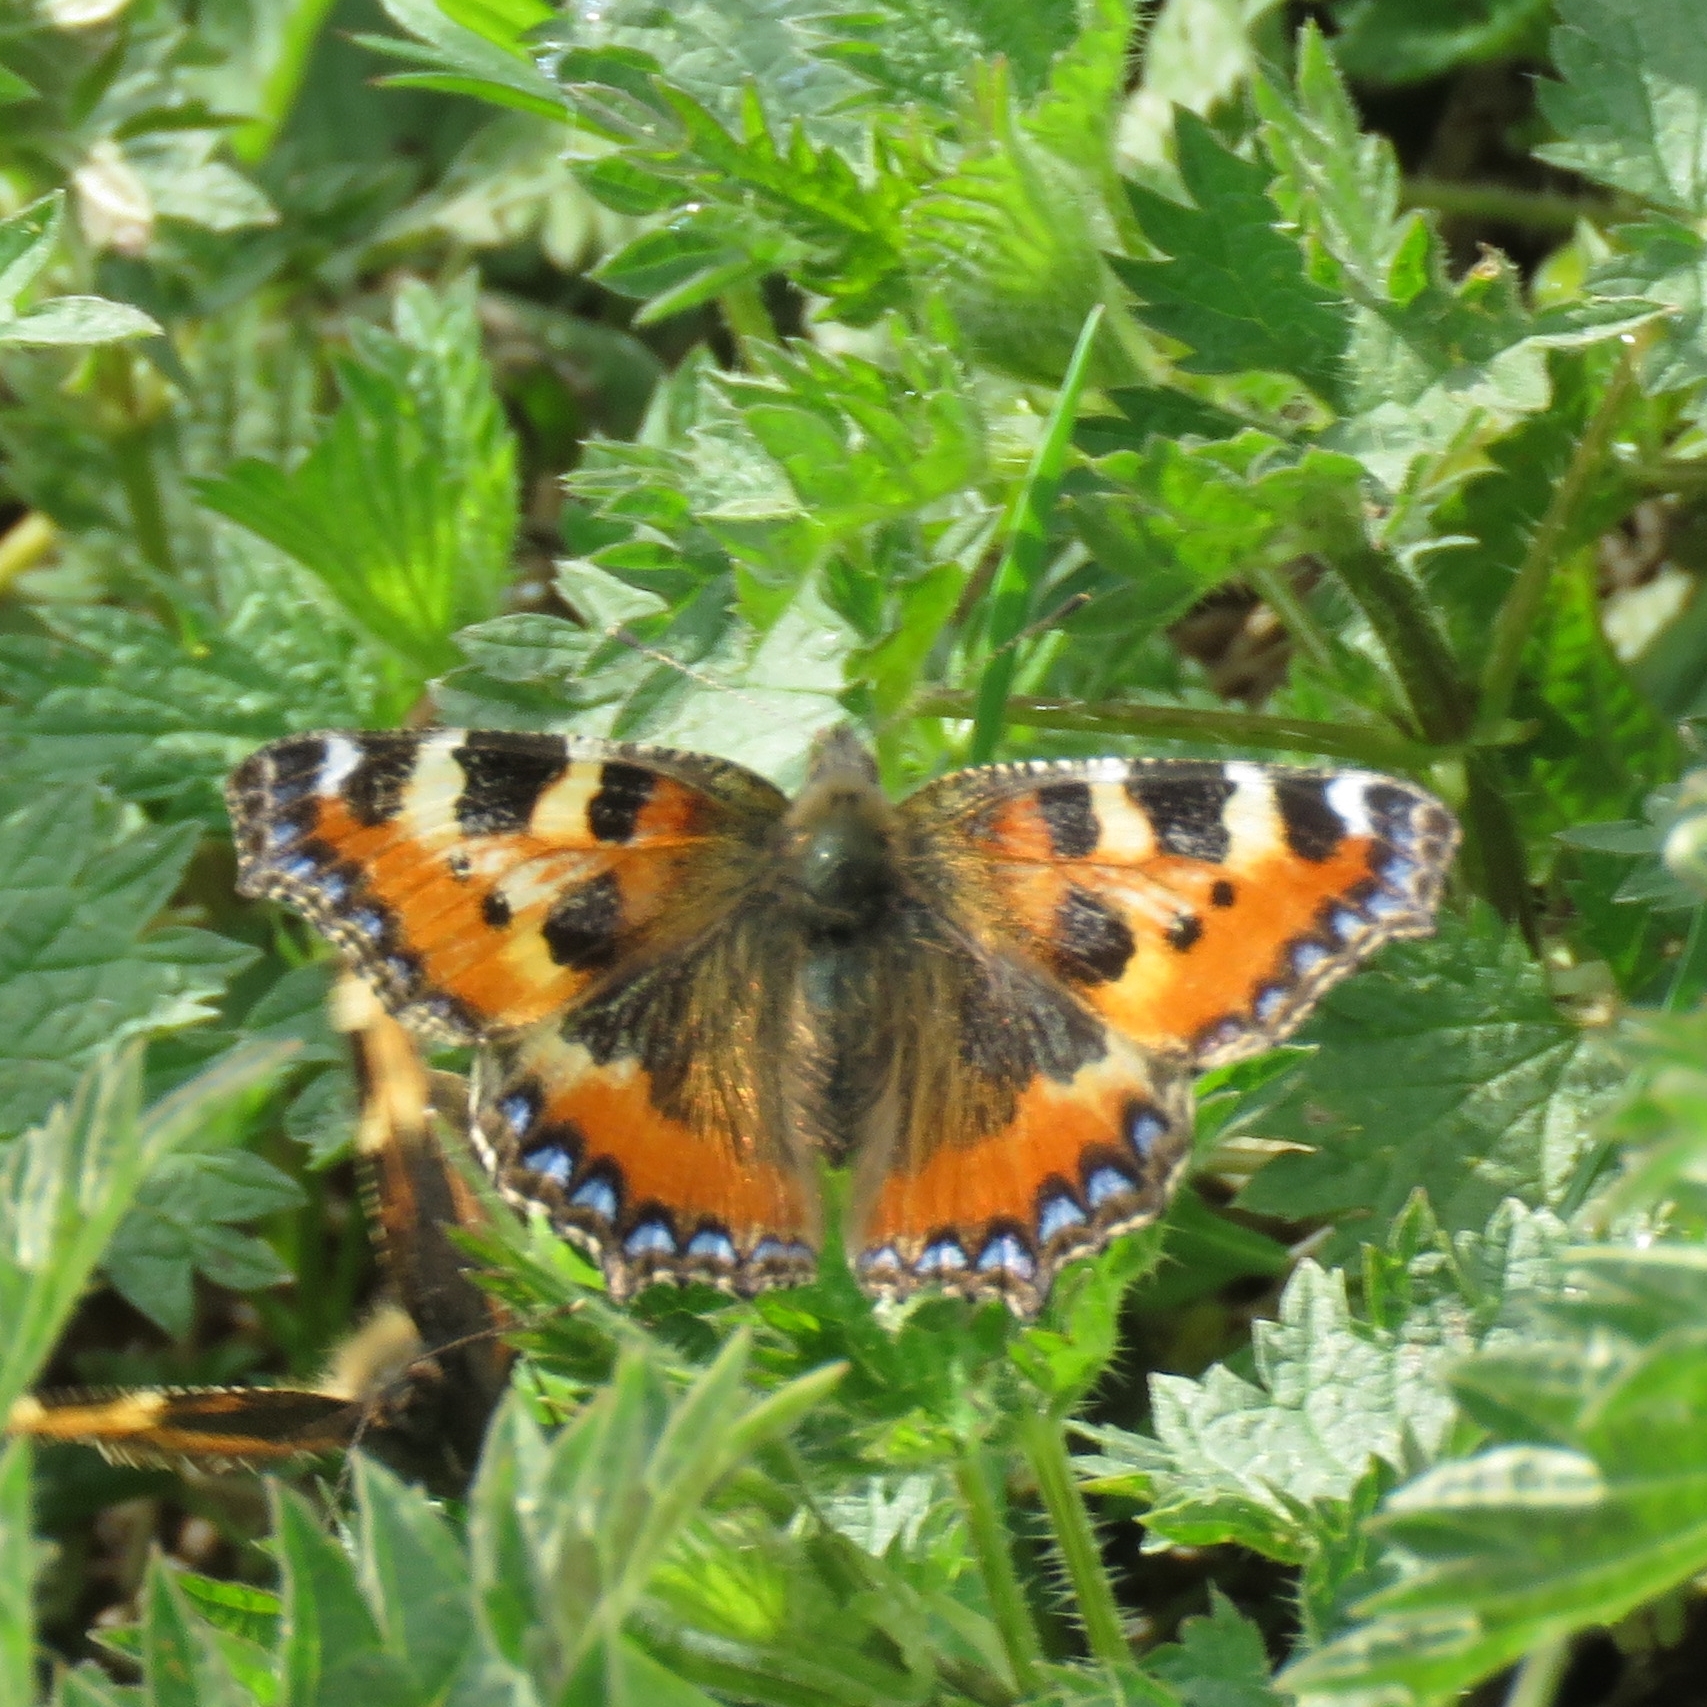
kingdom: Animalia
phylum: Arthropoda
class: Insecta
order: Lepidoptera
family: Nymphalidae
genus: Aglais
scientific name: Aglais urticae
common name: Small tortoiseshell
